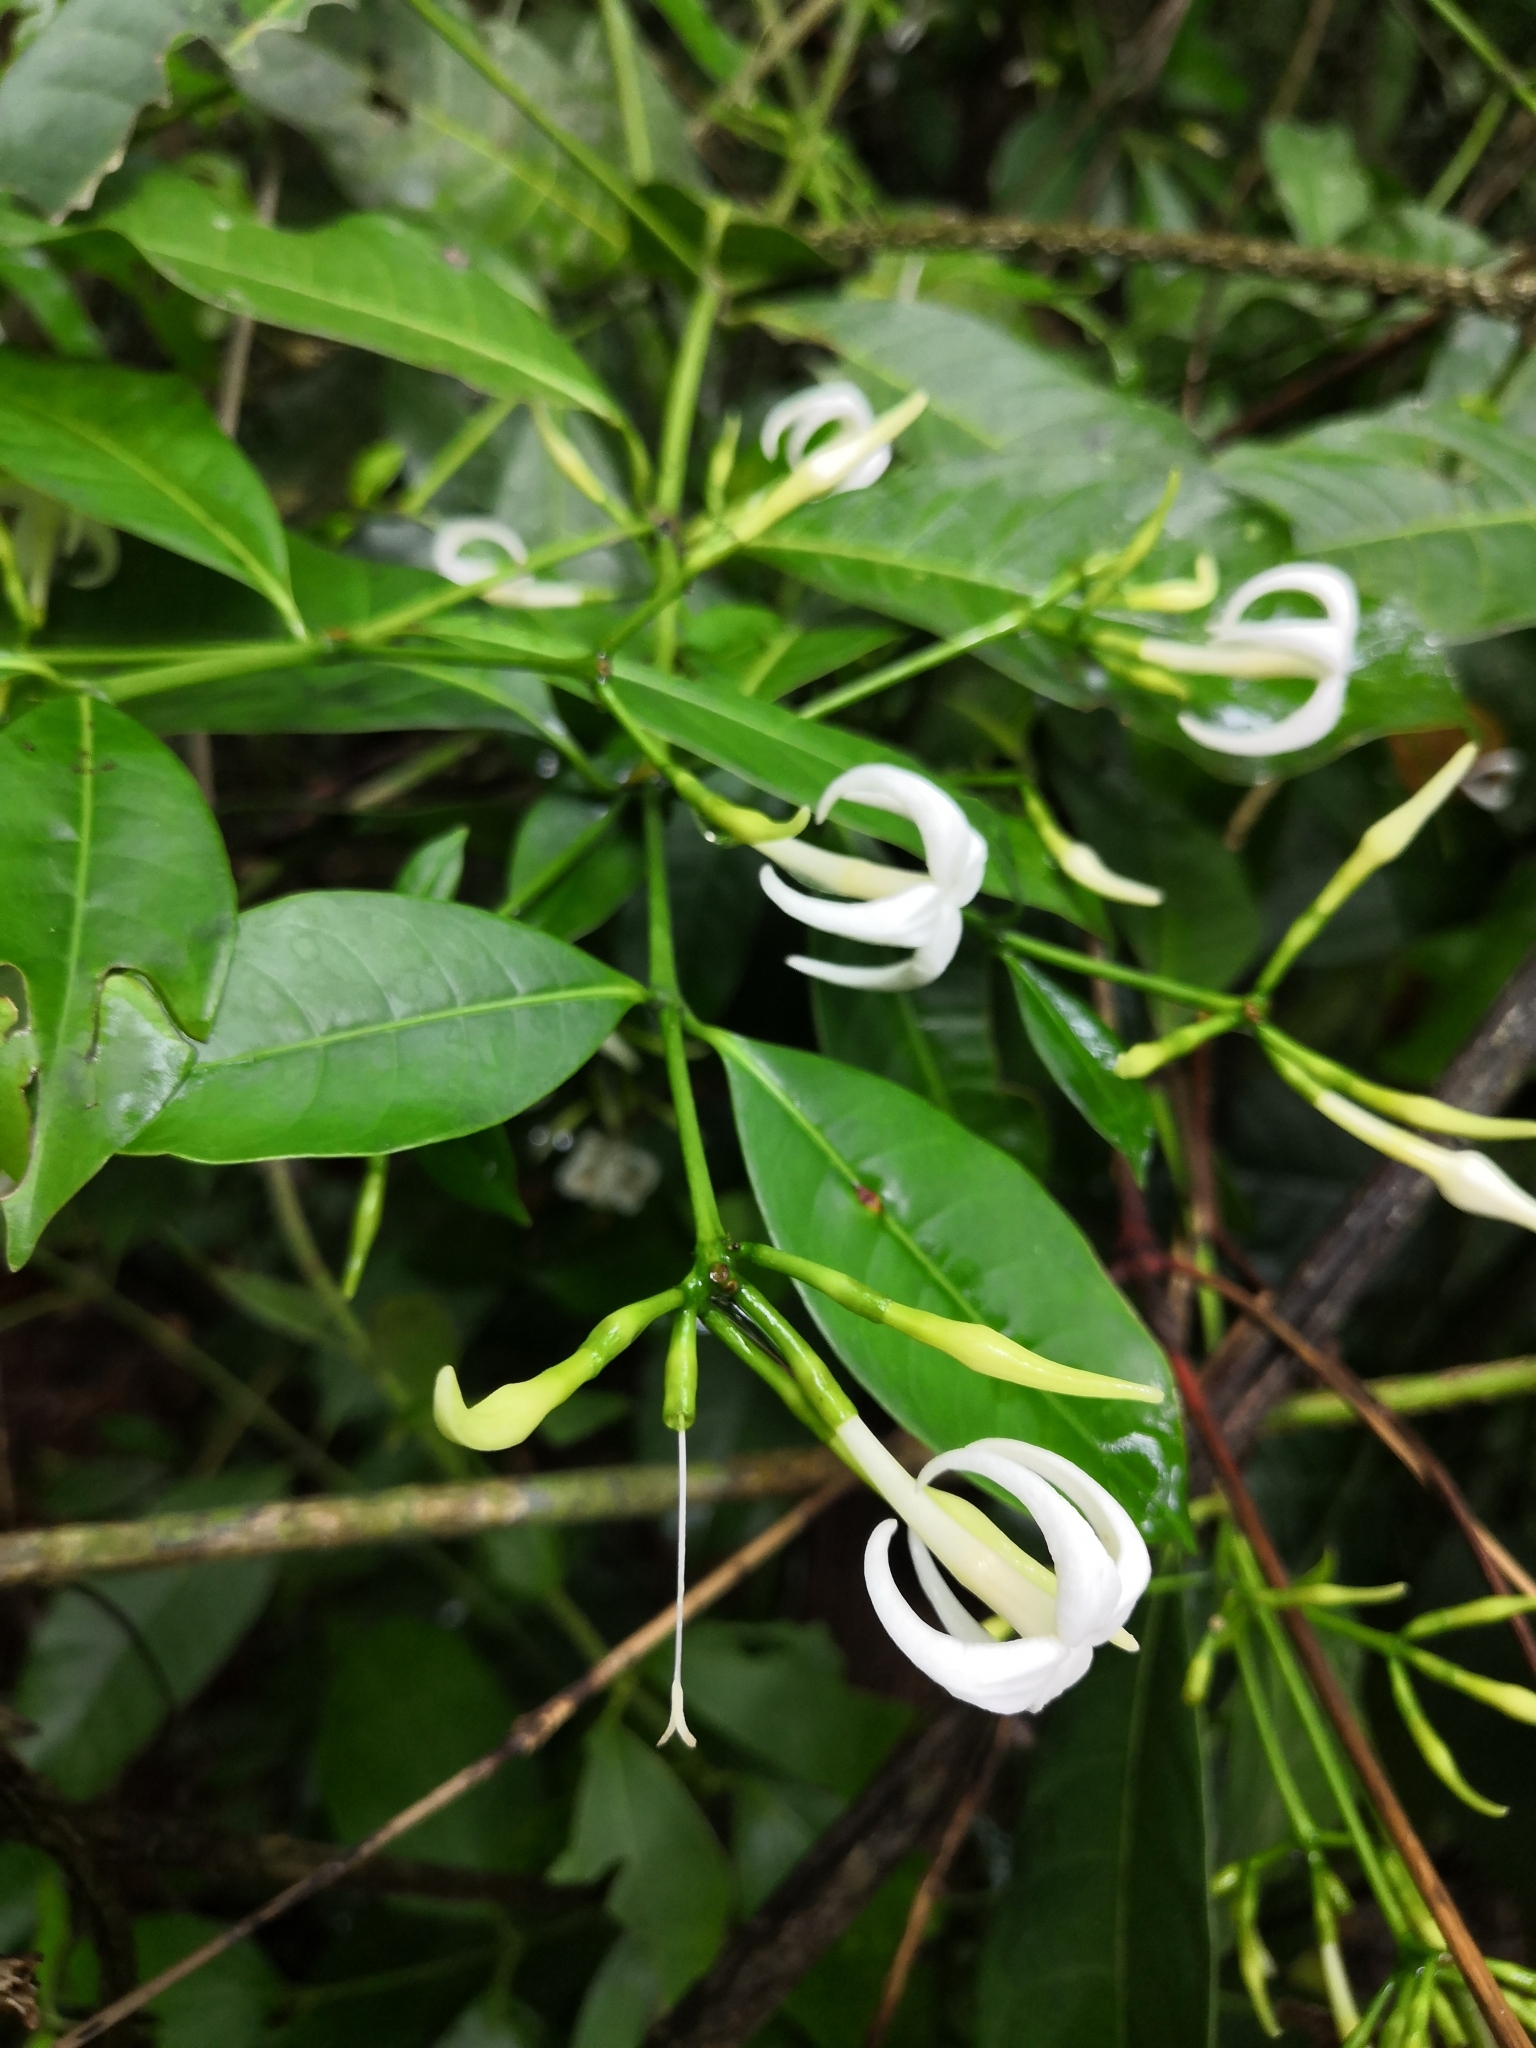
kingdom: Plantae
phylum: Tracheophyta
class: Magnoliopsida
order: Gentianales
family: Rubiaceae
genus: Faramea
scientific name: Faramea occidentalis
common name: False coffee
